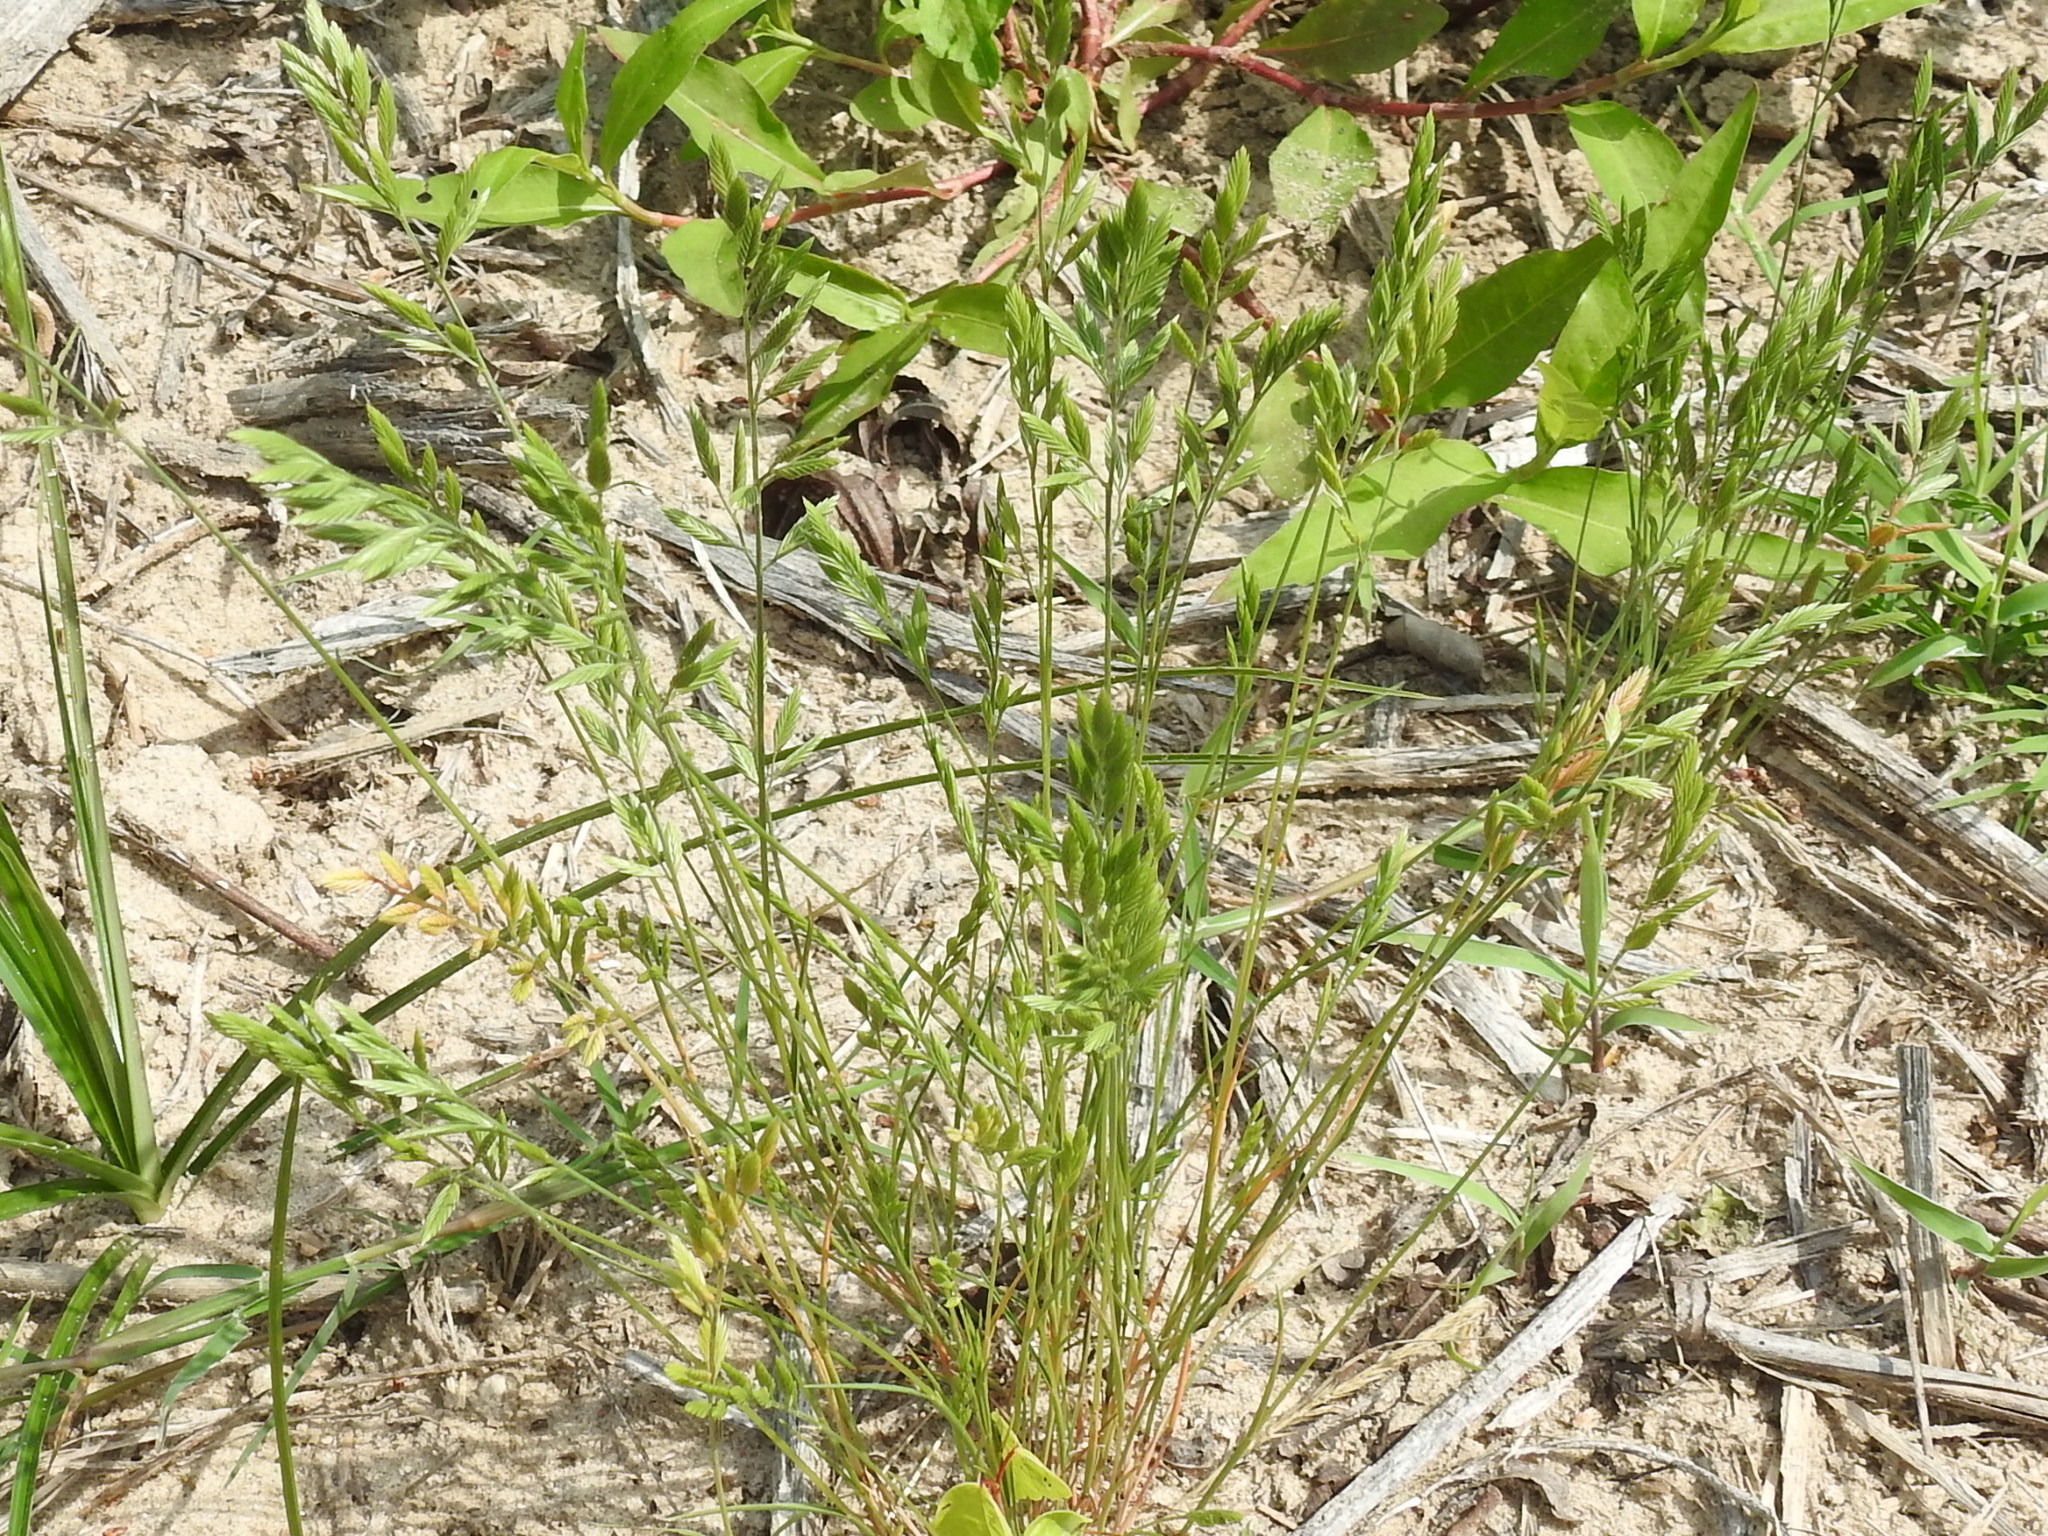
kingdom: Plantae
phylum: Tracheophyta
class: Liliopsida
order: Poales
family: Poaceae
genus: Festuca
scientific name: Festuca octoflora
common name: Sixweeks grass
